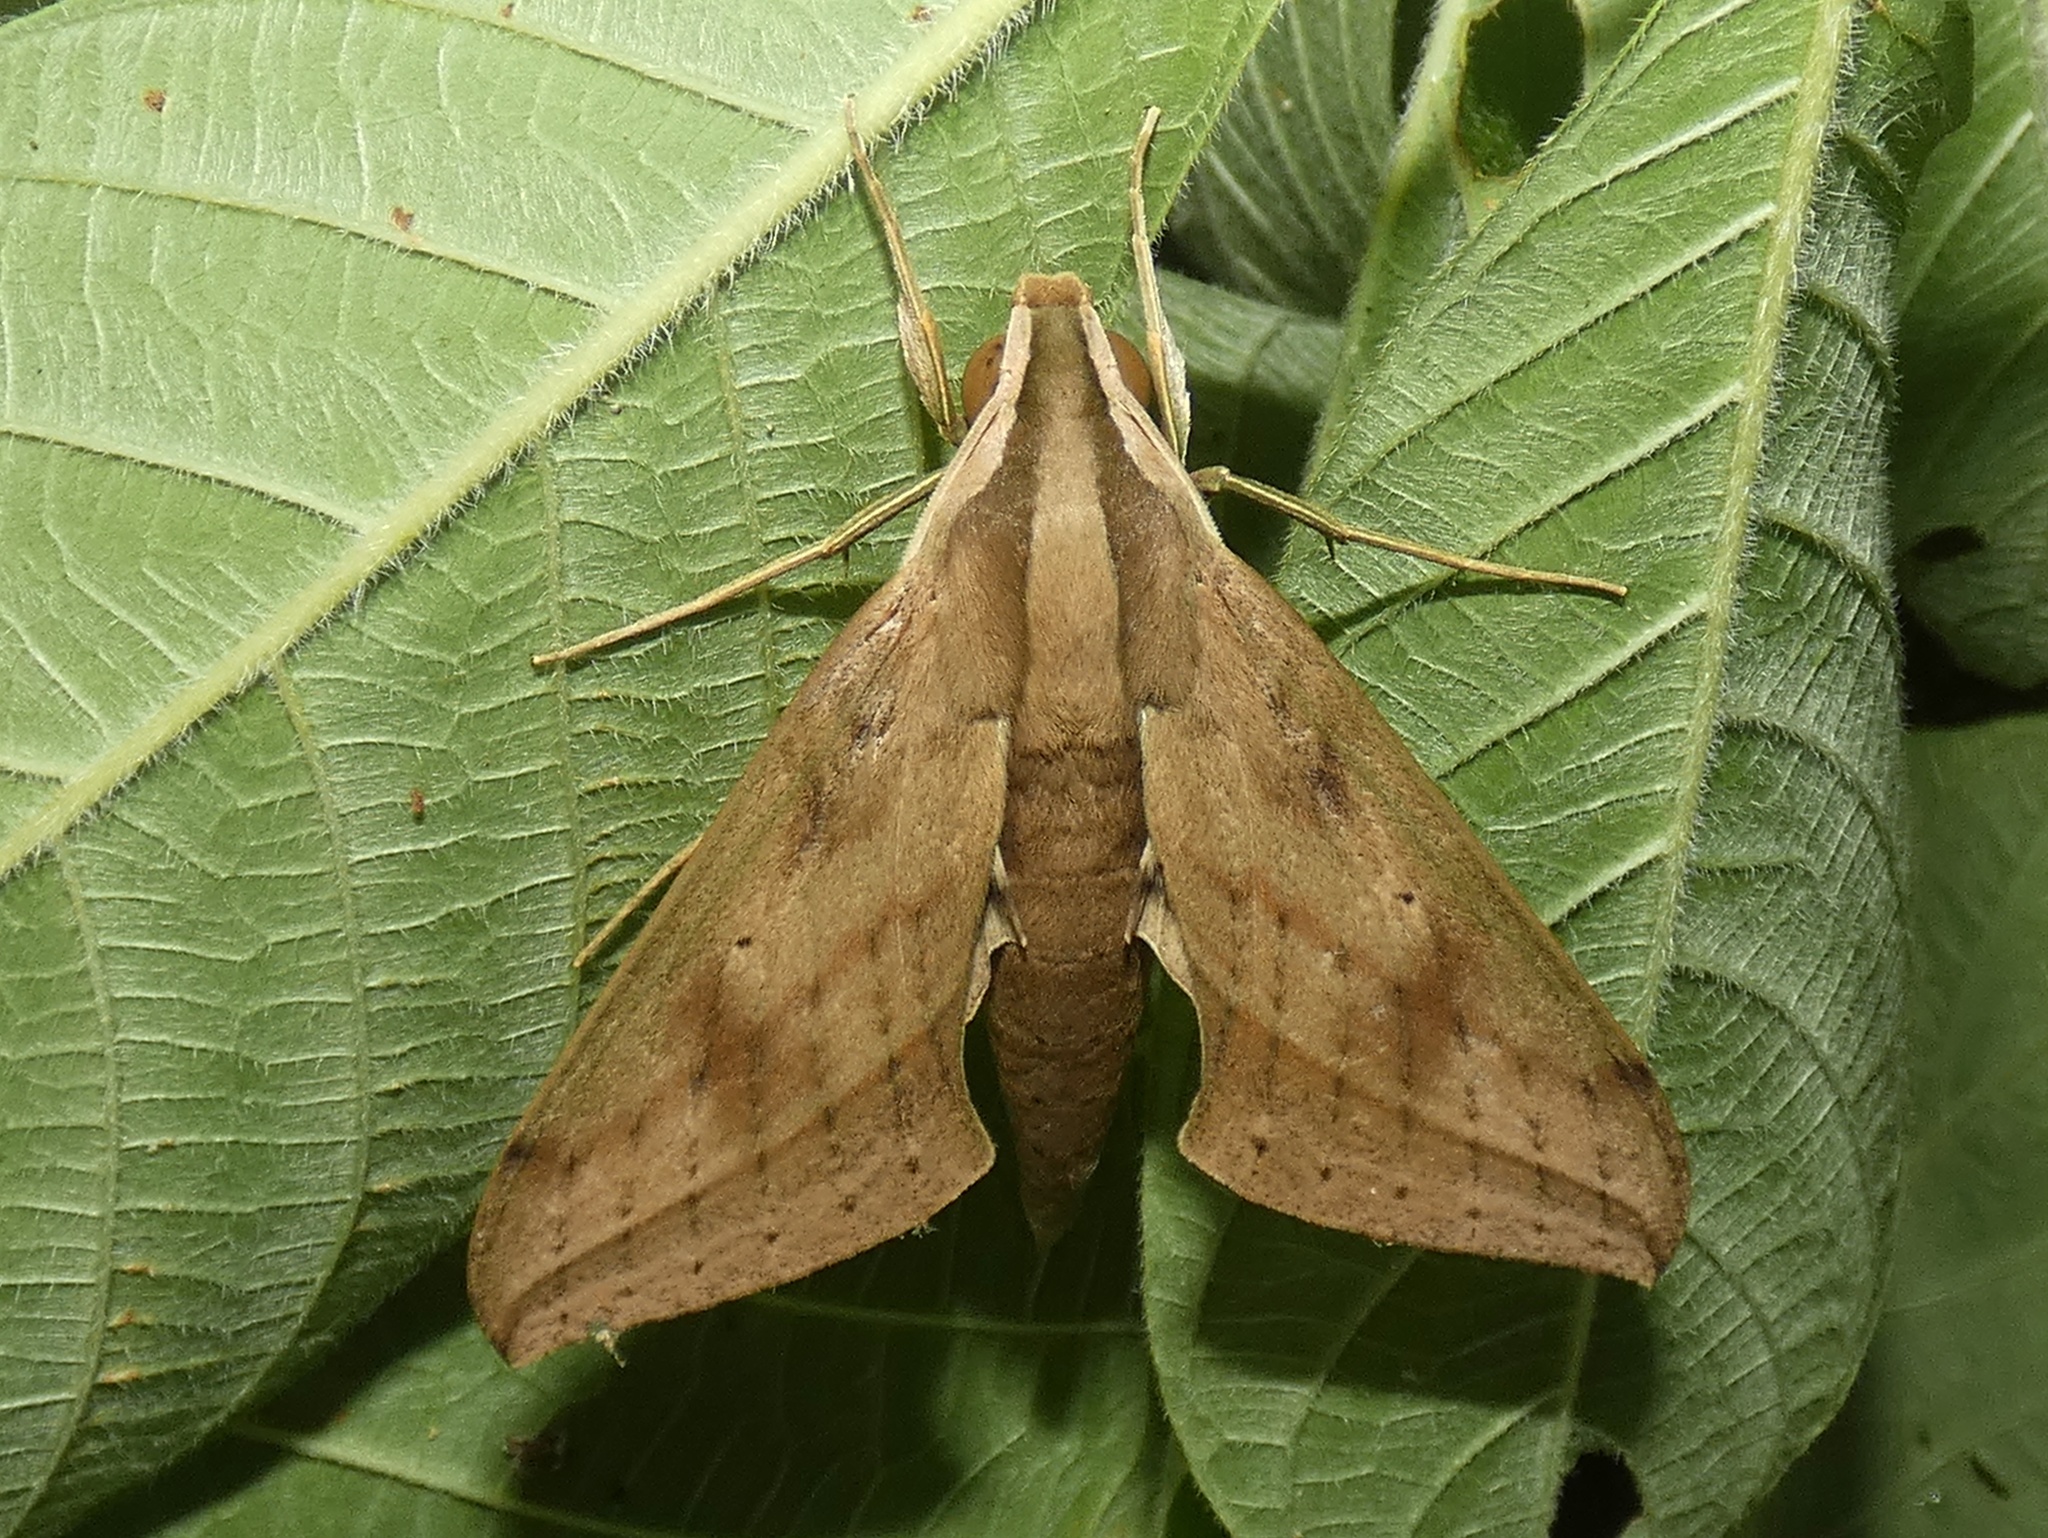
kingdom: Animalia
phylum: Arthropoda
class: Insecta
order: Lepidoptera
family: Sphingidae
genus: Xylophanes
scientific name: Xylophanes anubus
